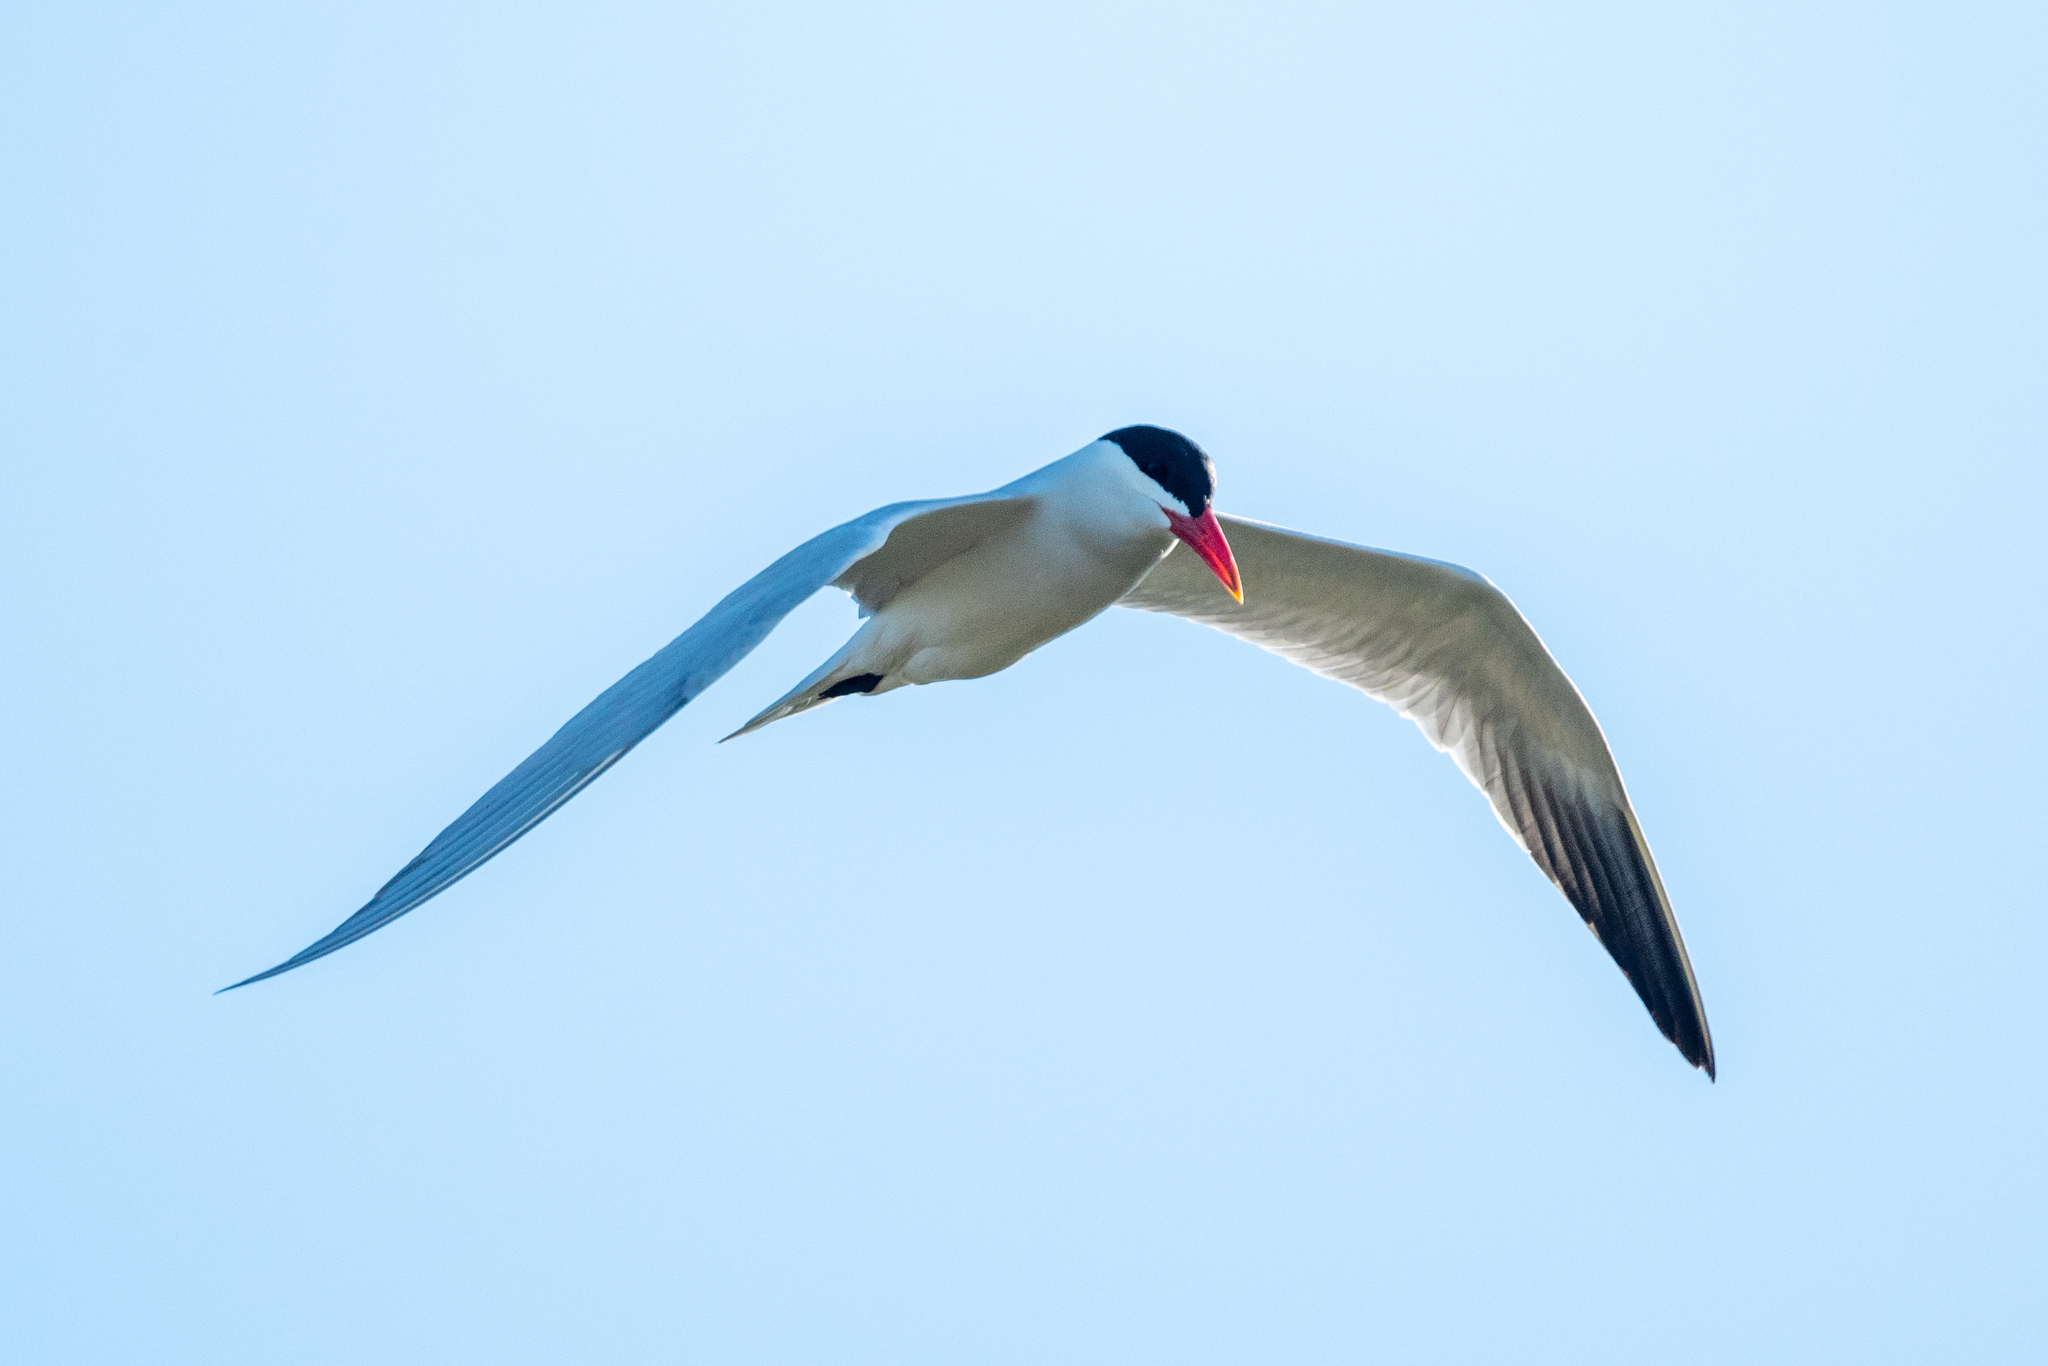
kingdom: Animalia
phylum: Chordata
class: Aves
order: Charadriiformes
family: Laridae
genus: Hydroprogne
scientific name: Hydroprogne caspia
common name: Caspian tern
